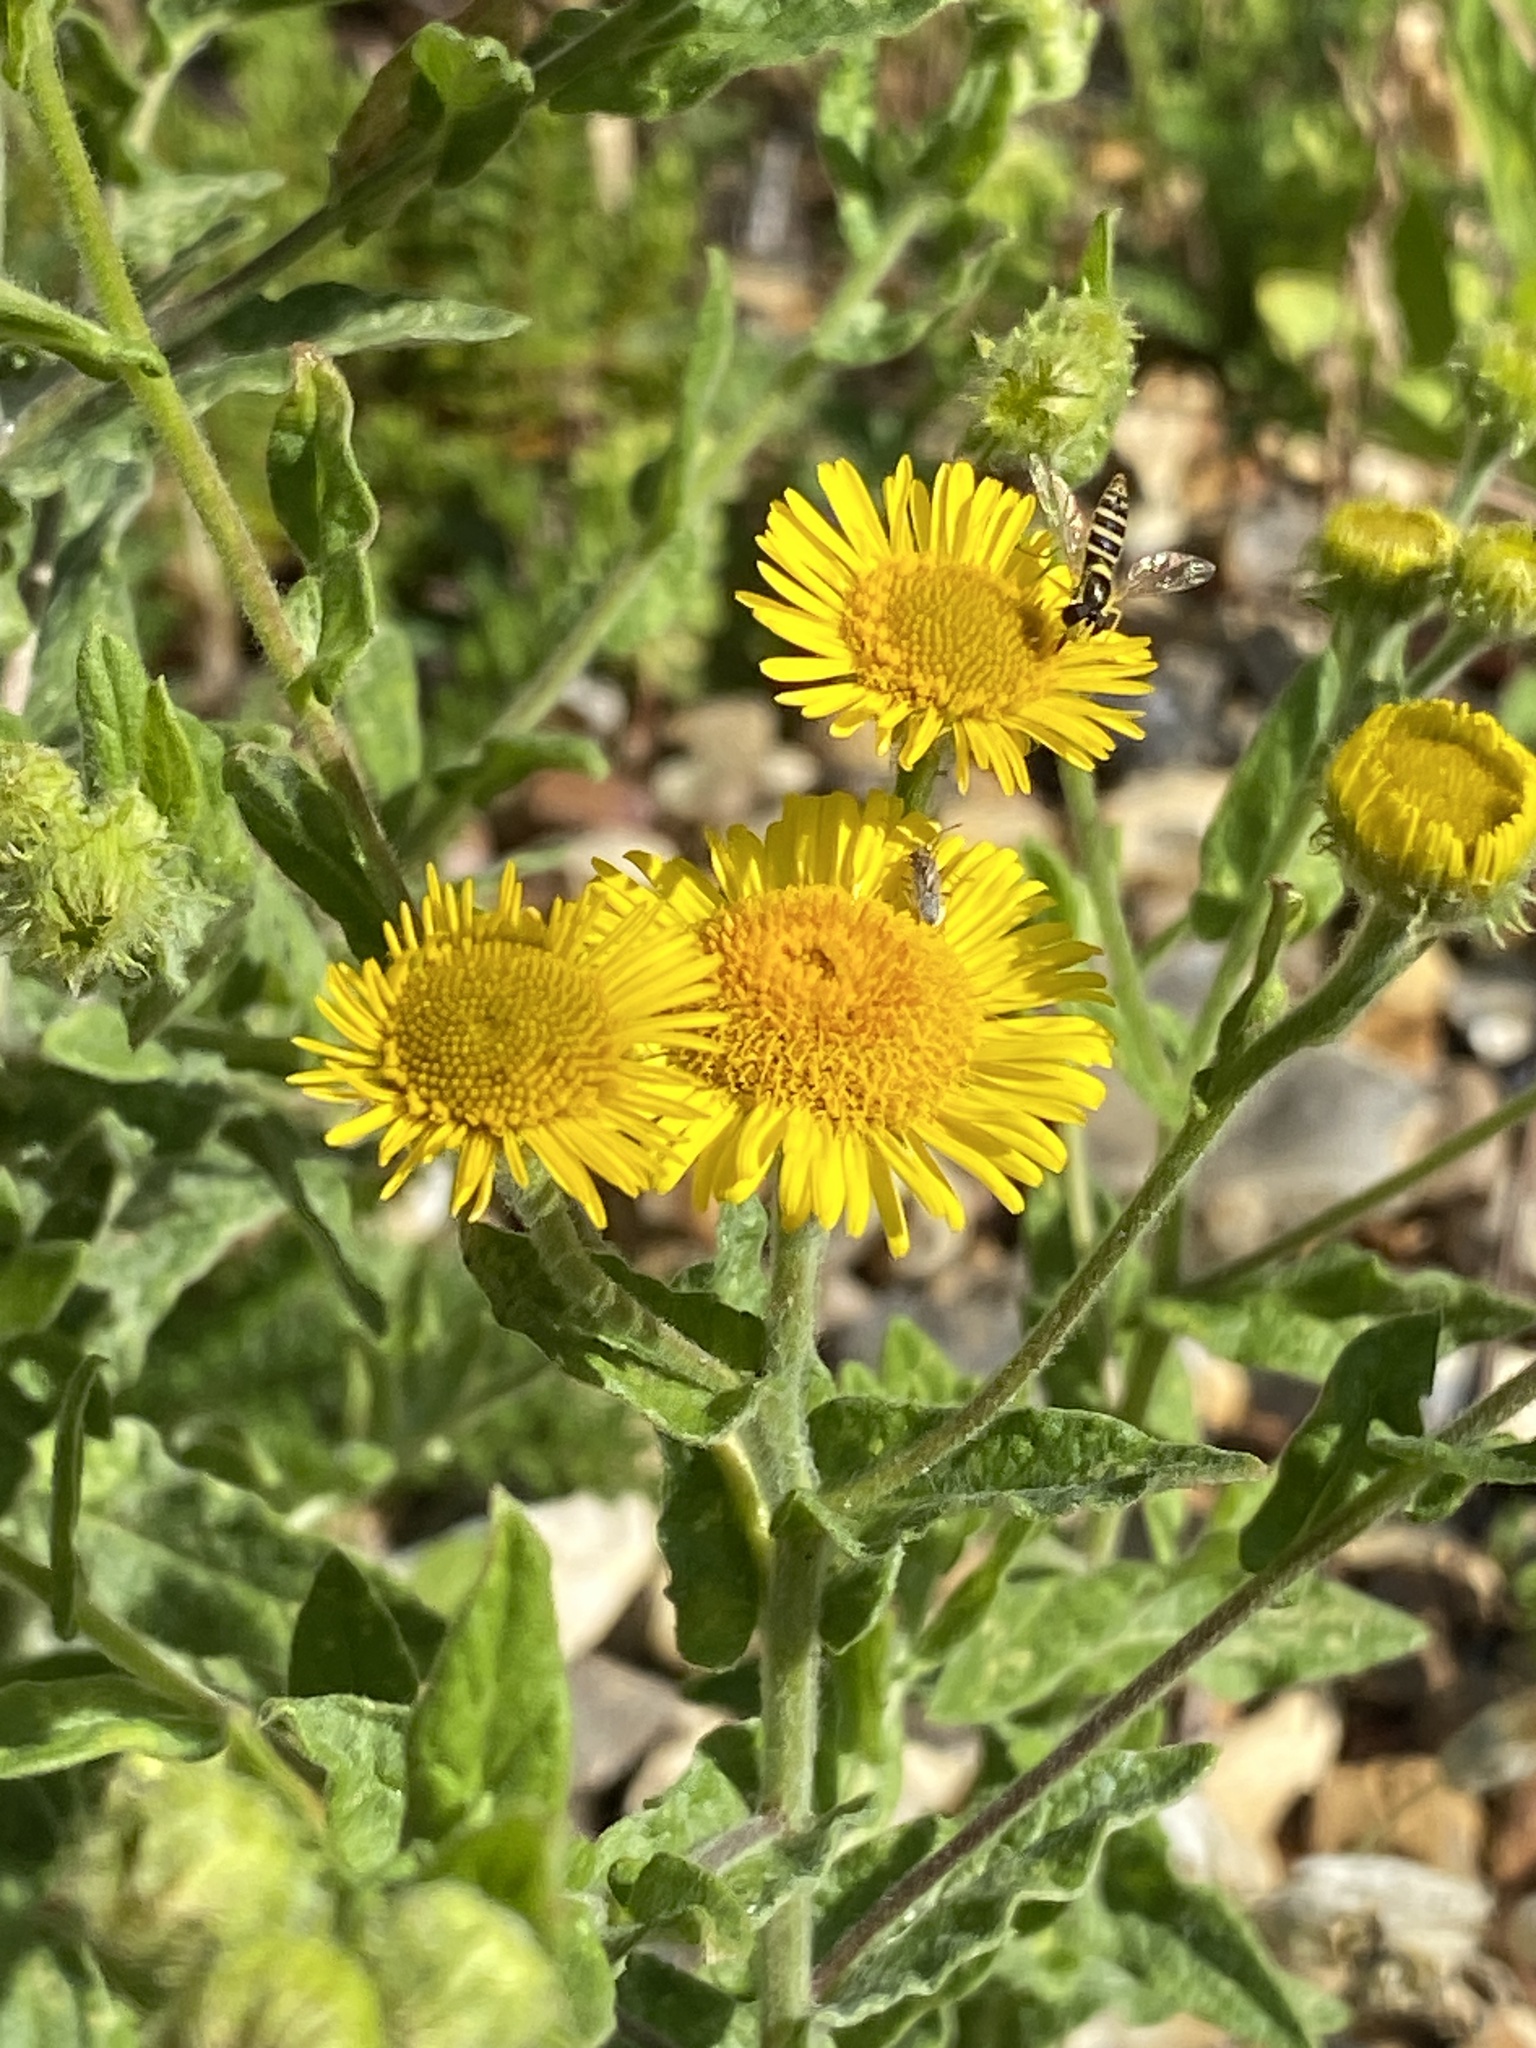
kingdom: Animalia
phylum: Arthropoda
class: Insecta
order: Diptera
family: Syrphidae
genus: Sphaerophoria
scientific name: Sphaerophoria
